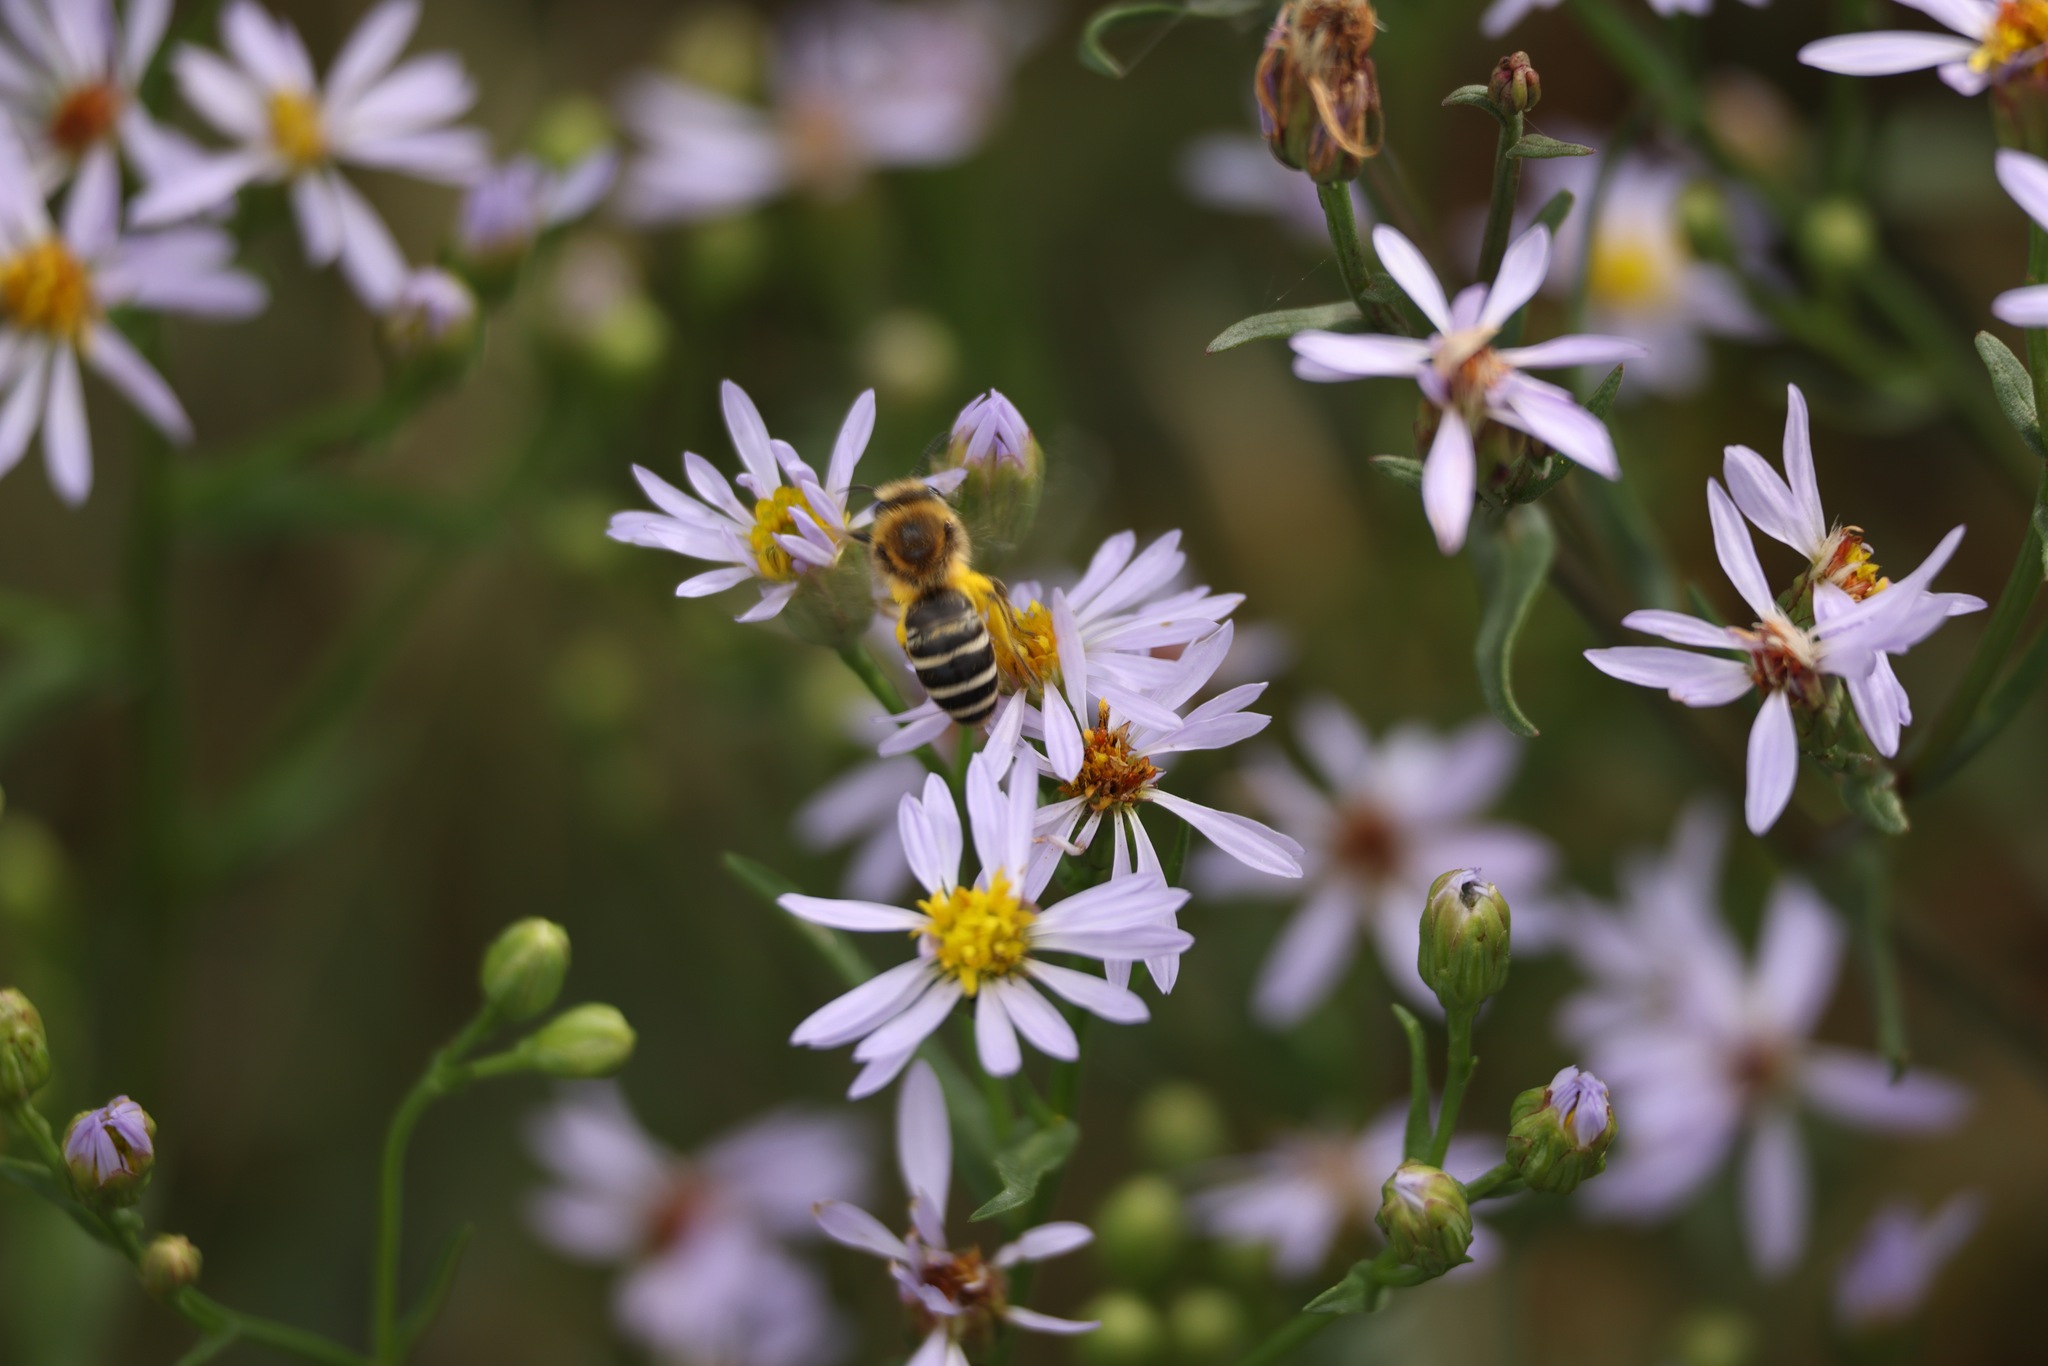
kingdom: Animalia
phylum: Arthropoda
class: Insecta
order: Hymenoptera
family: Colletidae
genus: Colletes
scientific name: Colletes halophilus
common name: Sea aster bee
